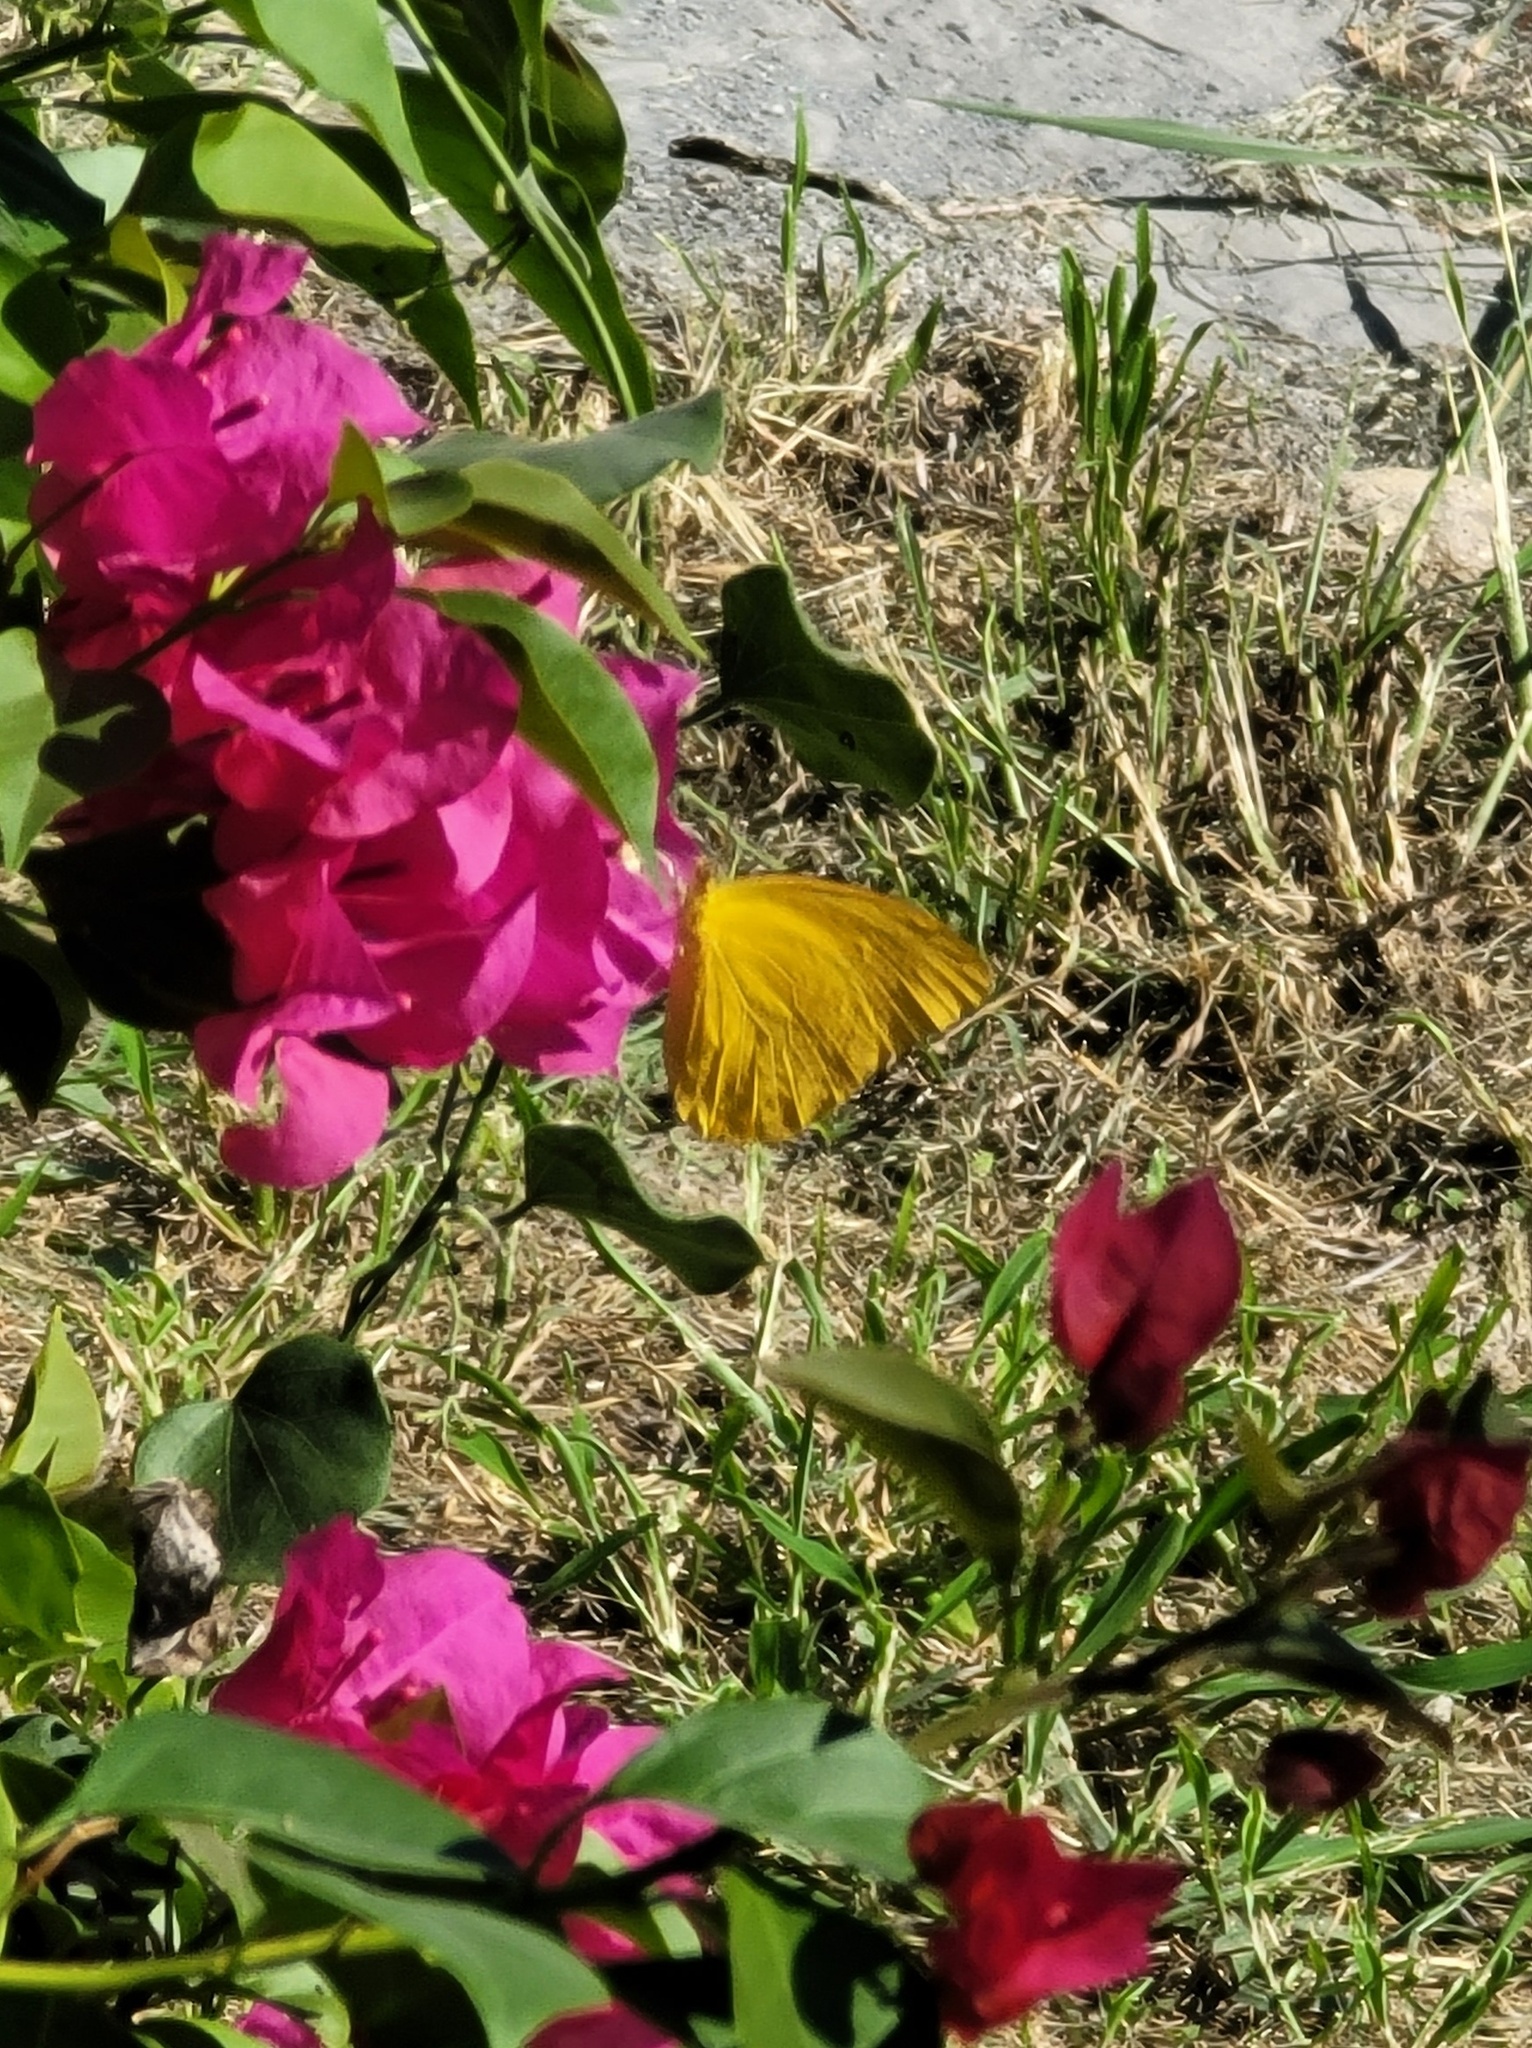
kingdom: Animalia
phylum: Arthropoda
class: Insecta
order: Lepidoptera
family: Pieridae
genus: Phoebis
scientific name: Phoebis agarithe
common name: Large orange sulphur
